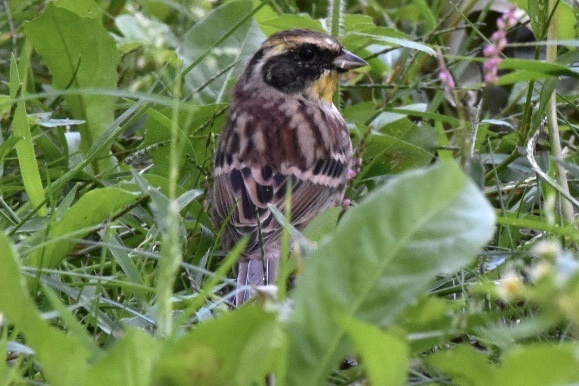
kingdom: Animalia
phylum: Chordata
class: Aves
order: Passeriformes
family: Emberizidae
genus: Emberiza
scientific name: Emberiza elegans
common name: Yellow-throated bunting
